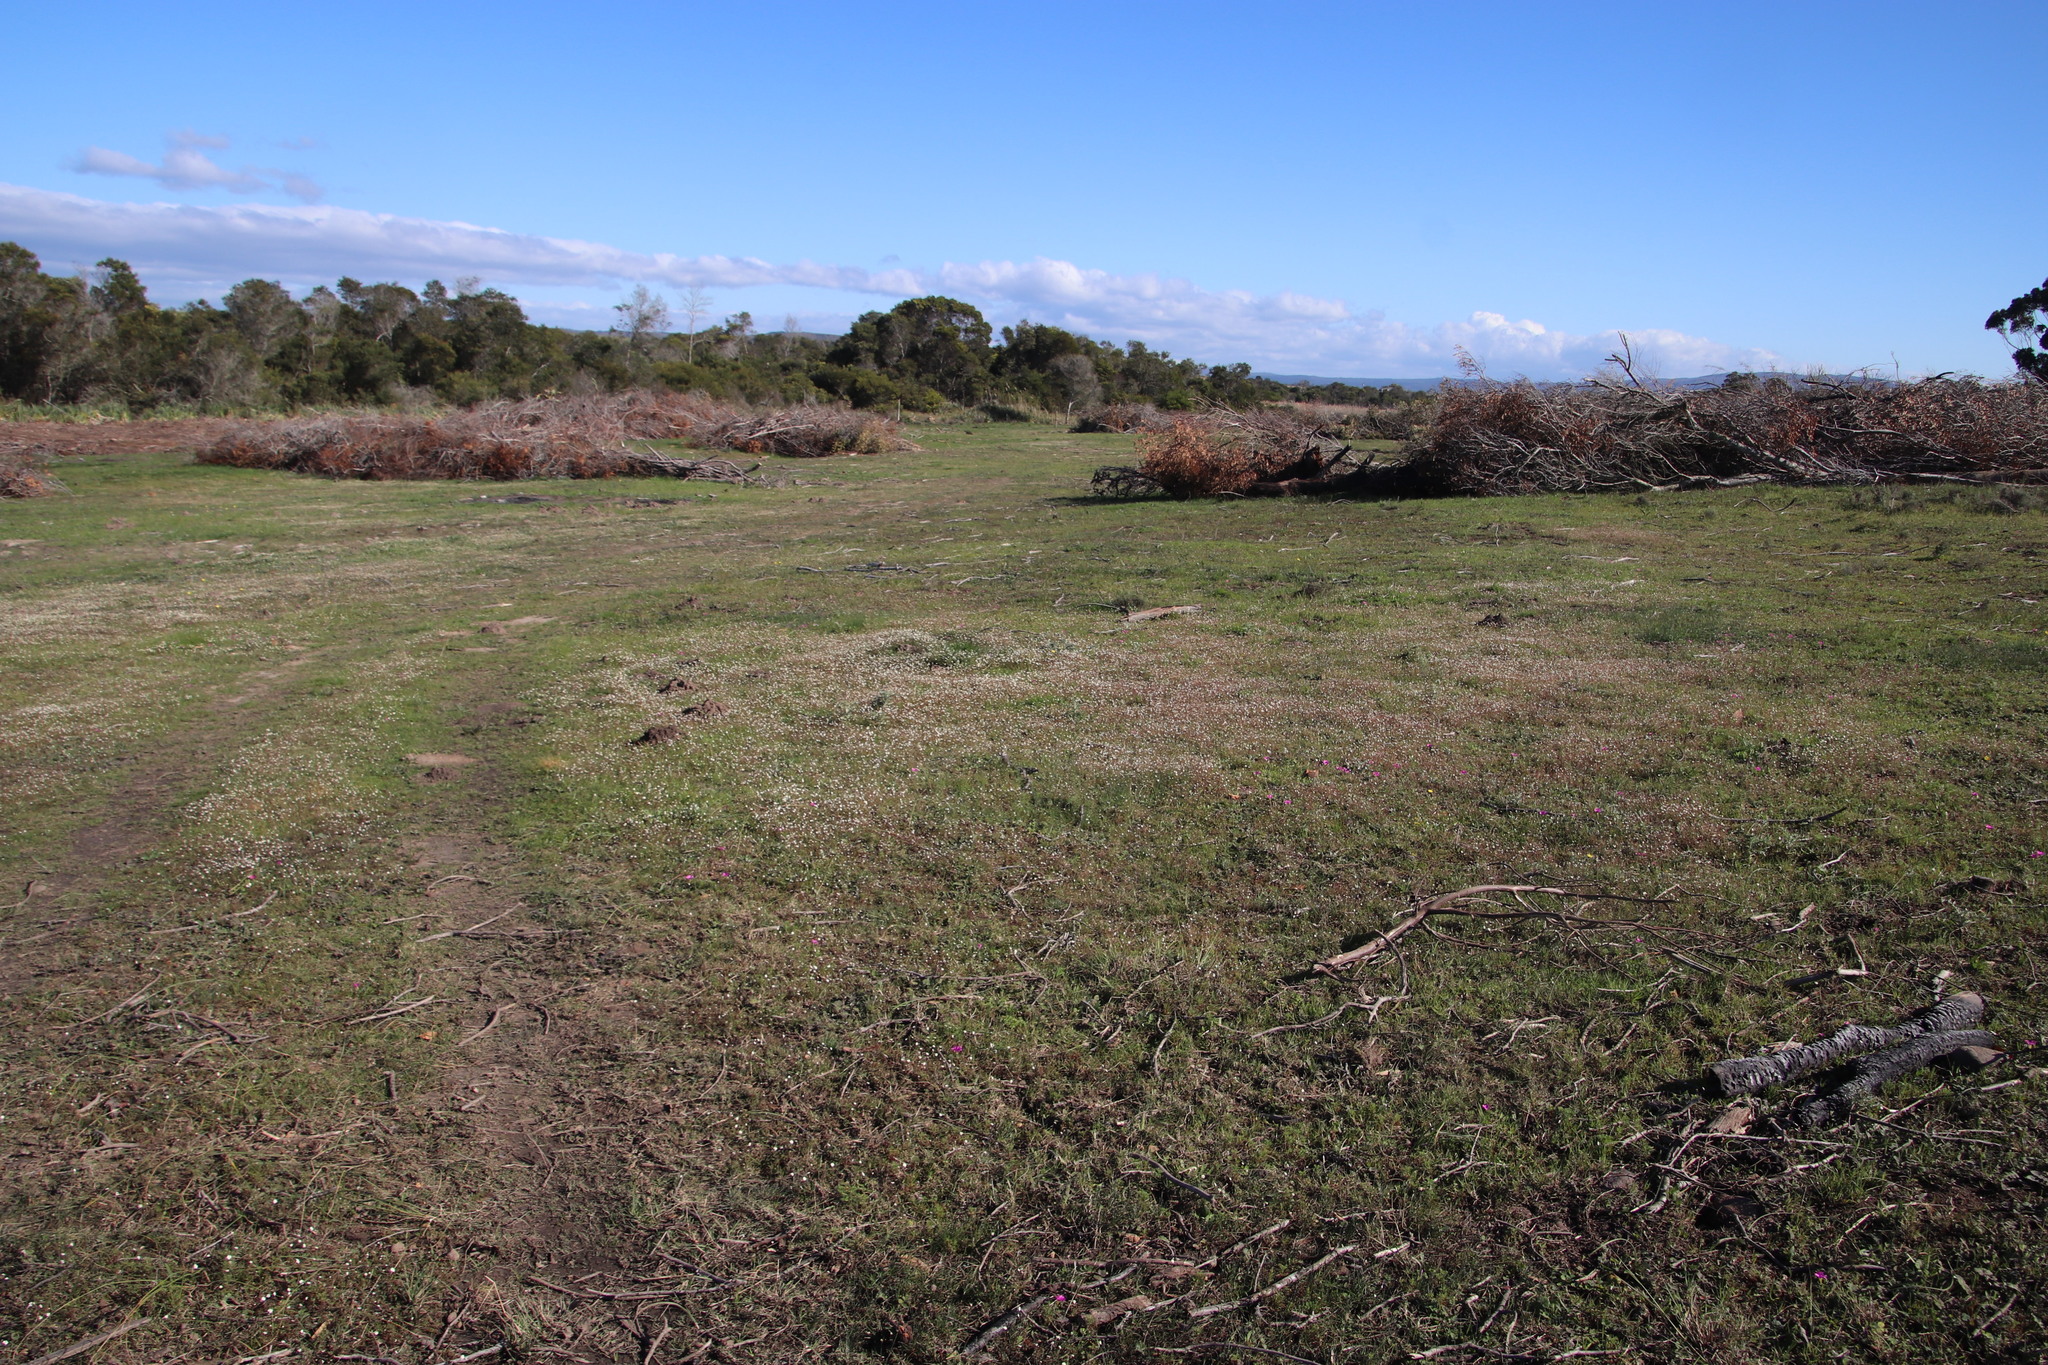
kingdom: Plantae
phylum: Tracheophyta
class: Magnoliopsida
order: Asterales
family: Asteraceae
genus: Cotula
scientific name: Cotula turbinata
